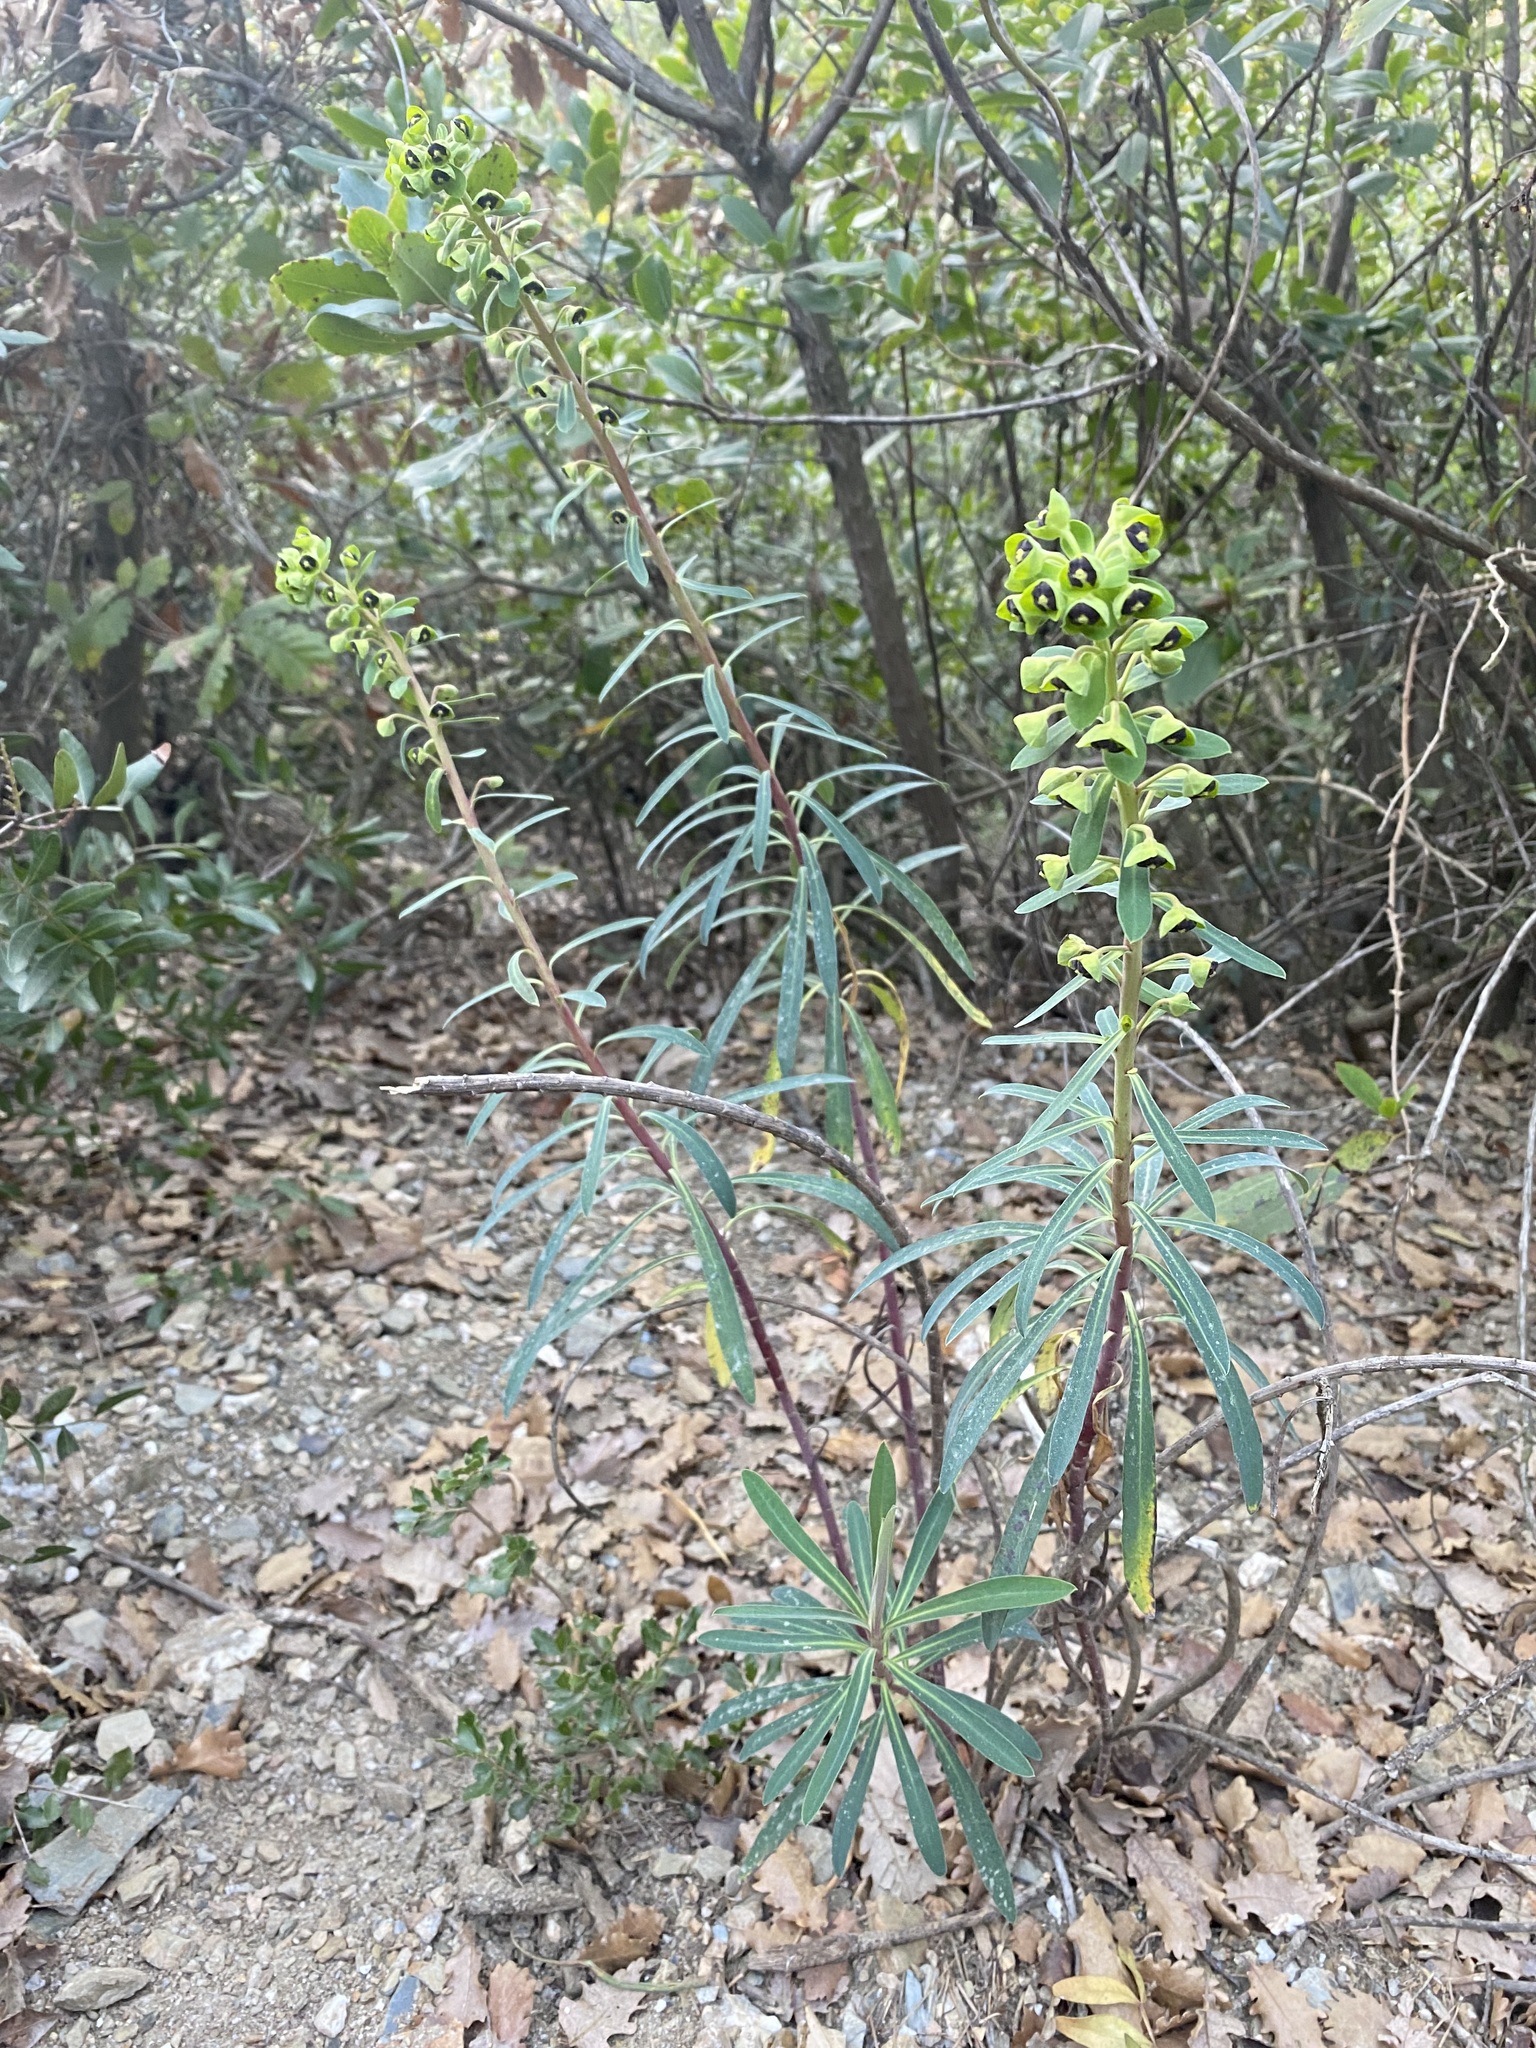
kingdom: Plantae
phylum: Tracheophyta
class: Magnoliopsida
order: Malpighiales
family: Euphorbiaceae
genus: Euphorbia
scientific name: Euphorbia characias
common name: Mediterranean spurge
